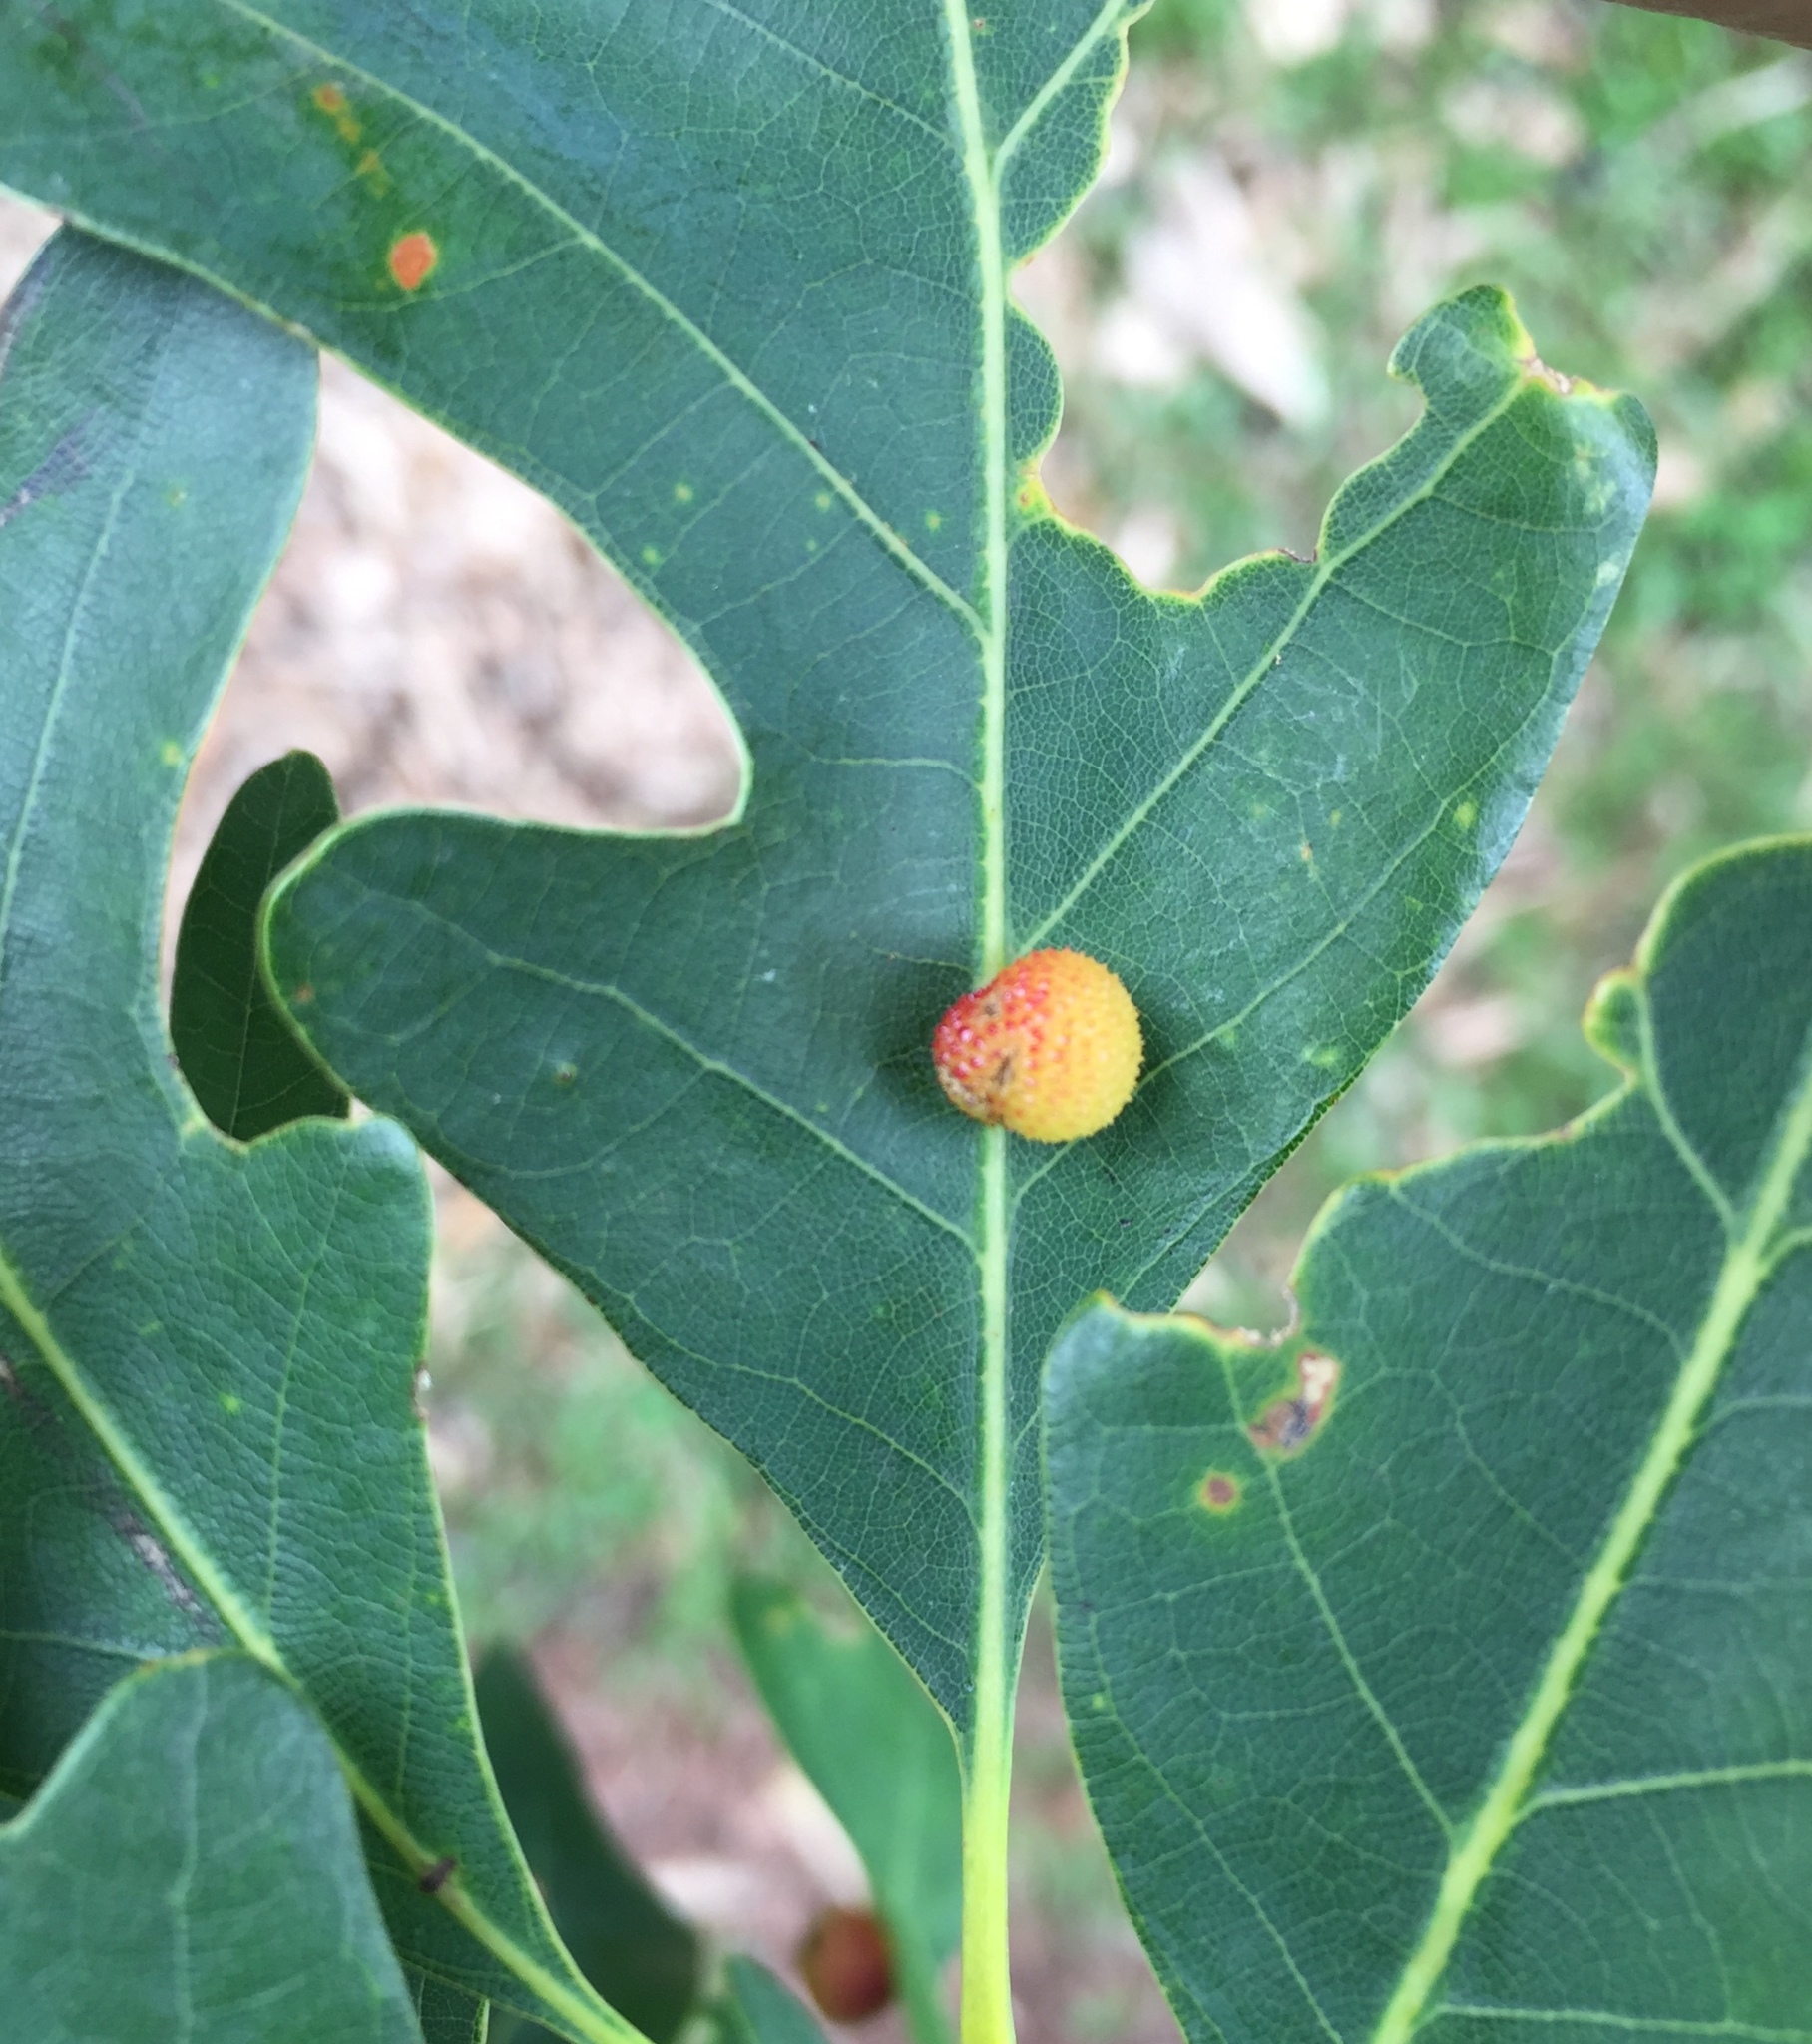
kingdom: Animalia
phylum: Arthropoda
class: Insecta
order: Hymenoptera
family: Cynipidae
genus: Acraspis
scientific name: Acraspis
